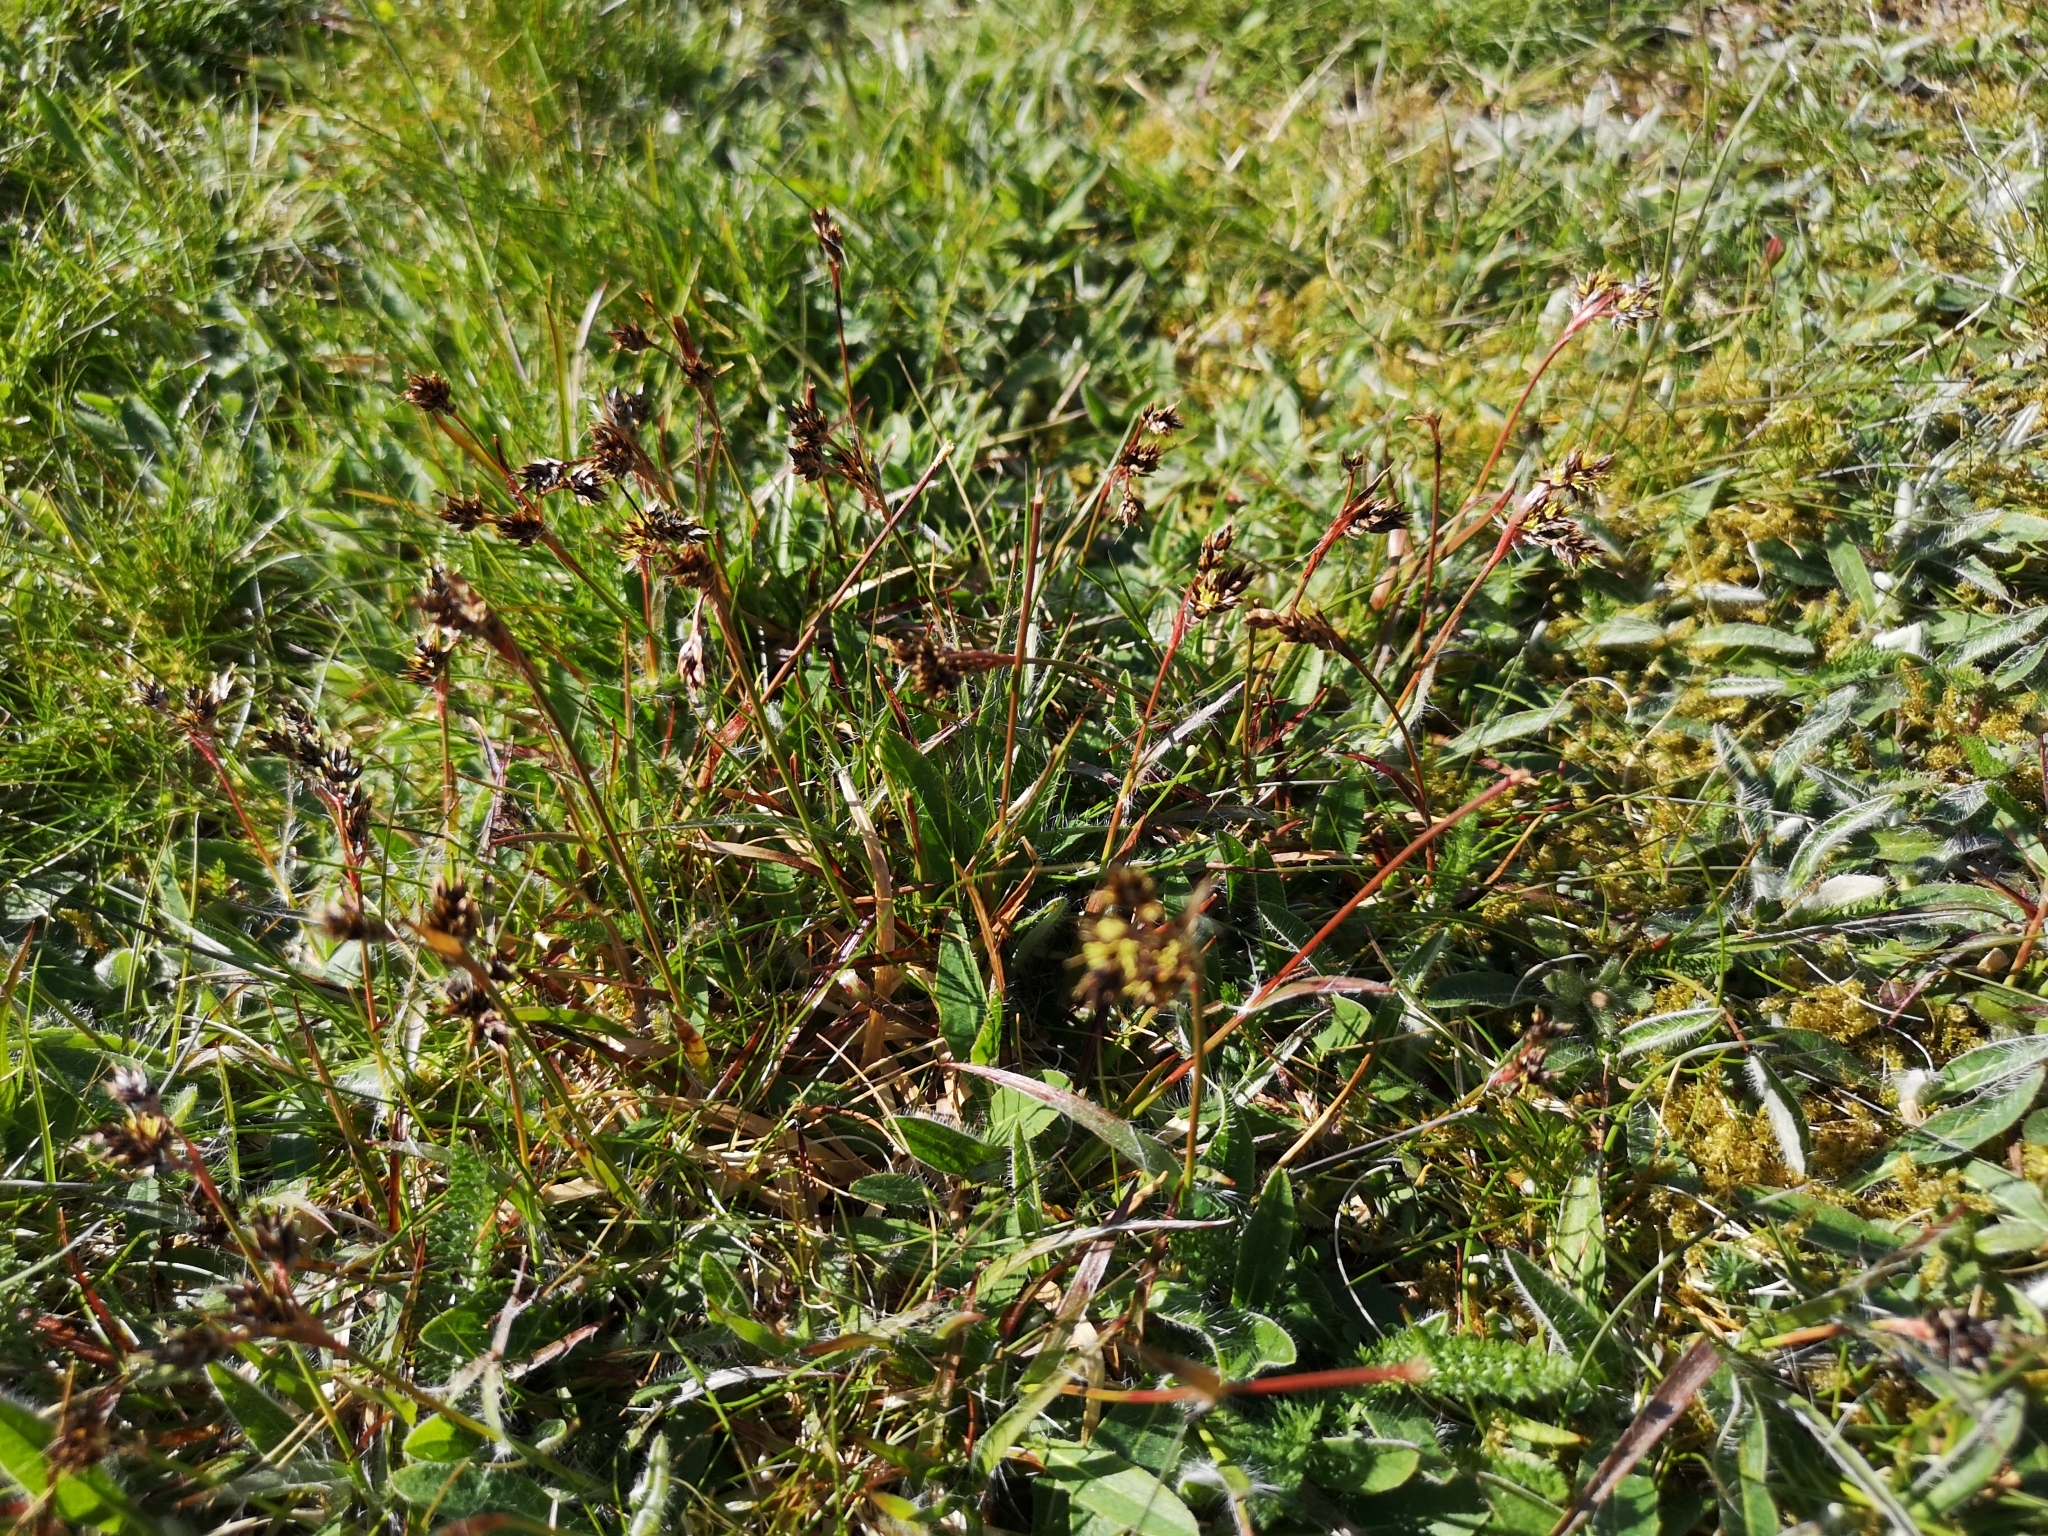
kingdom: Plantae
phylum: Tracheophyta
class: Liliopsida
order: Poales
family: Juncaceae
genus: Luzula
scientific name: Luzula campestris
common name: Field wood-rush
